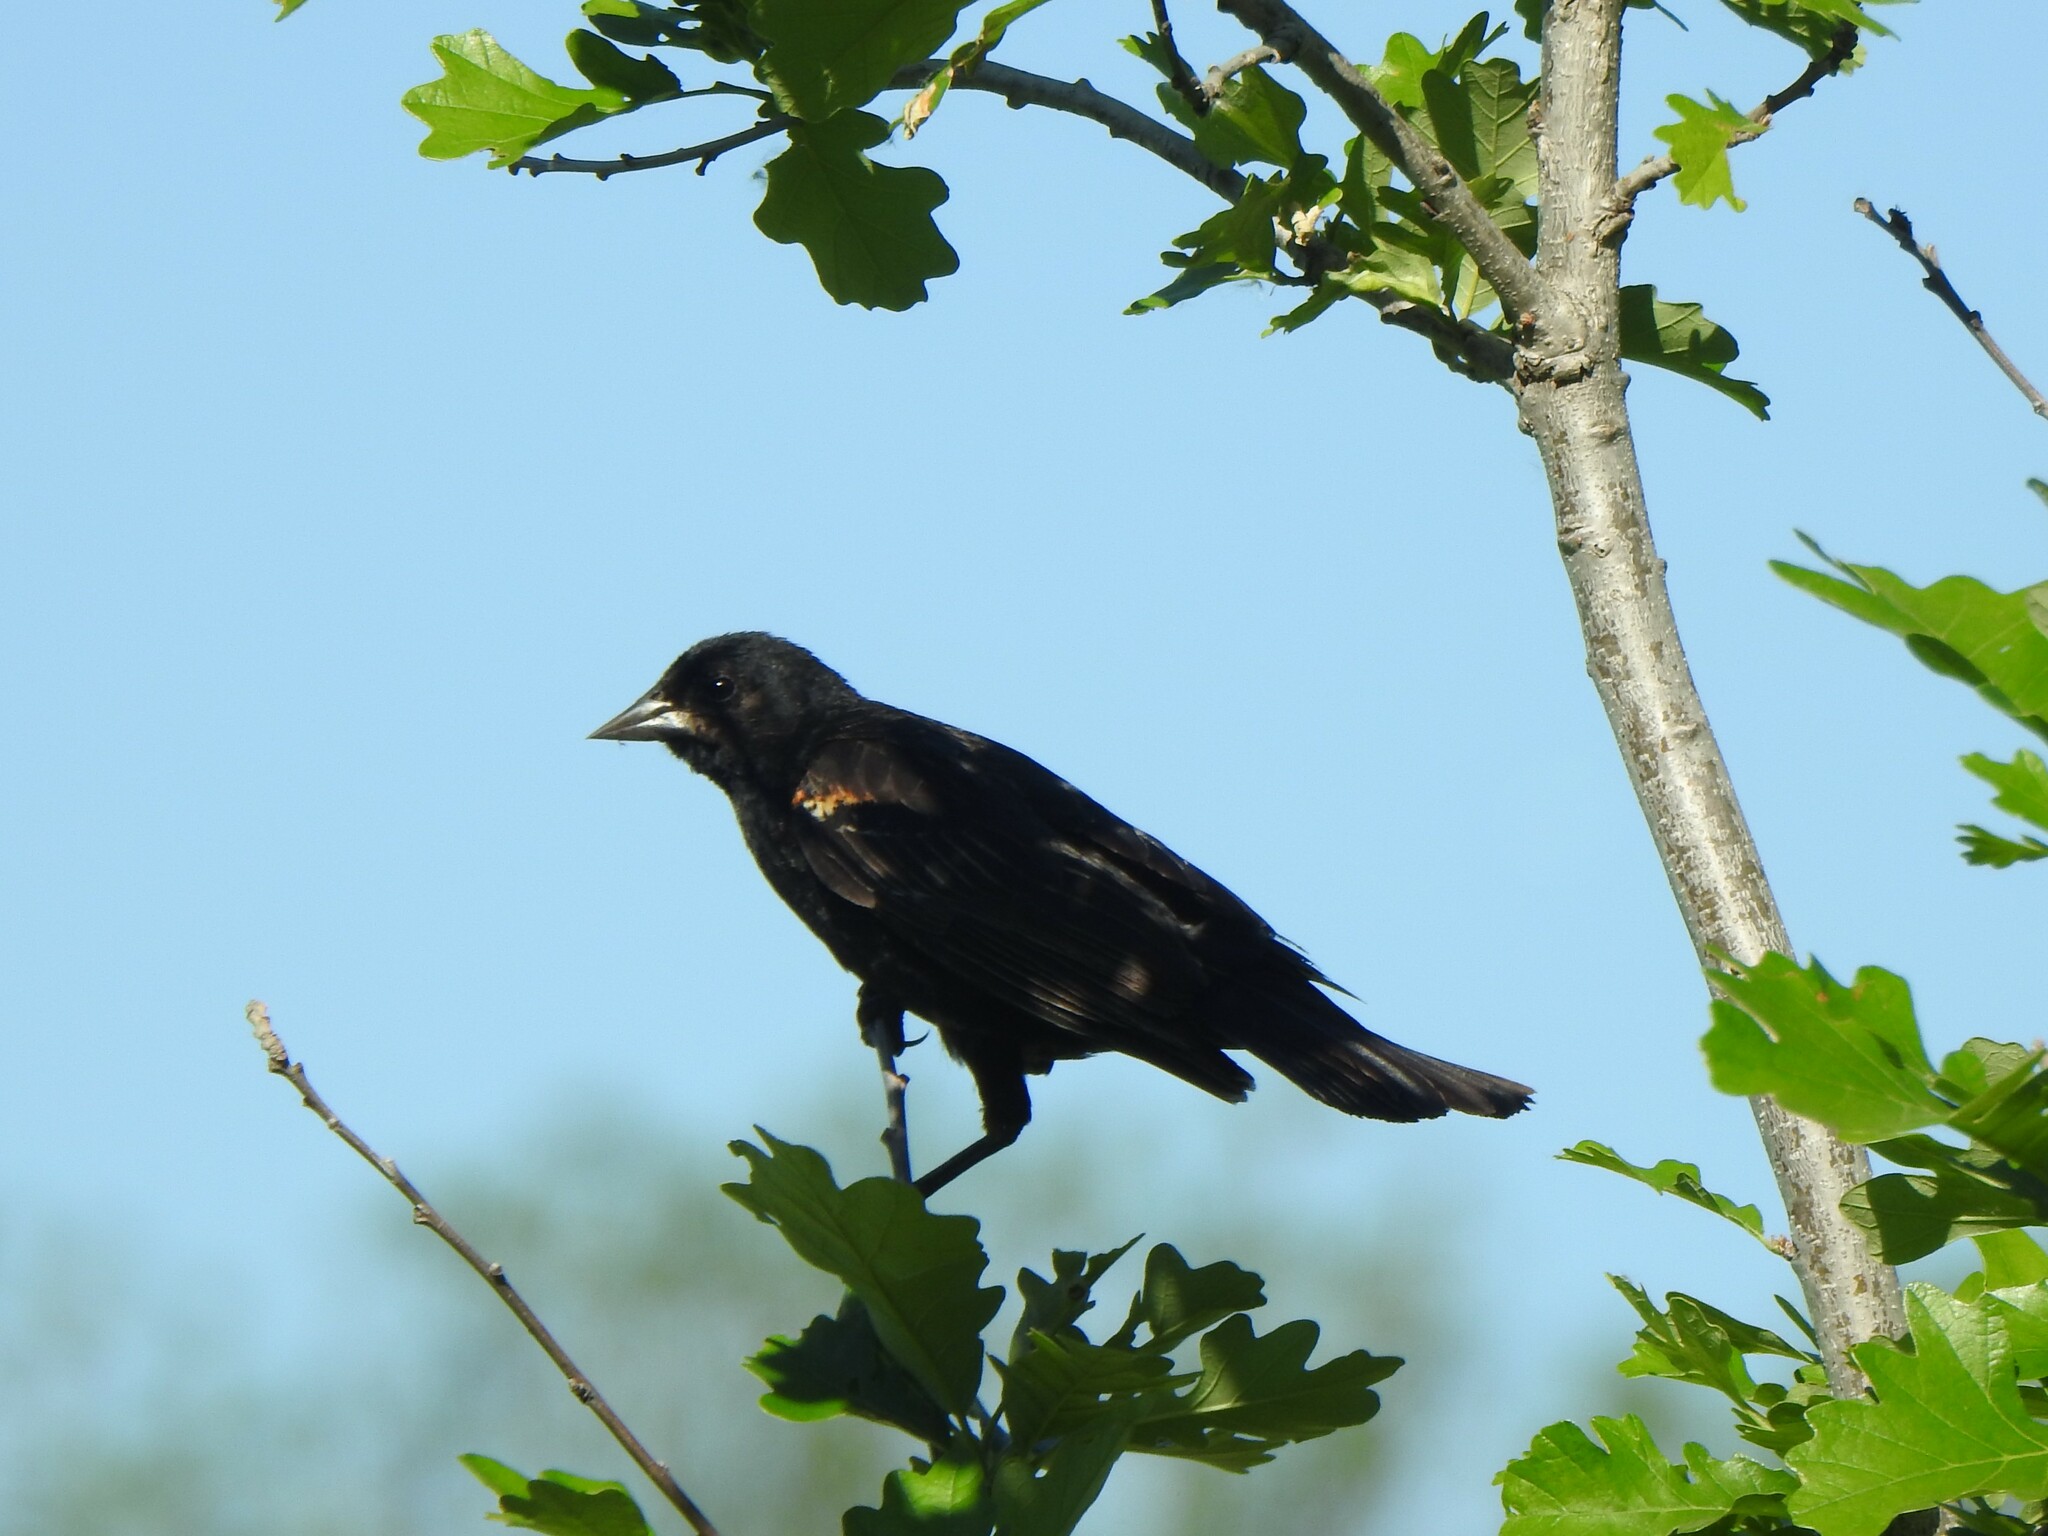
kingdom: Animalia
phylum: Chordata
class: Aves
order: Passeriformes
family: Icteridae
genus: Agelaius
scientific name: Agelaius phoeniceus
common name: Red-winged blackbird
